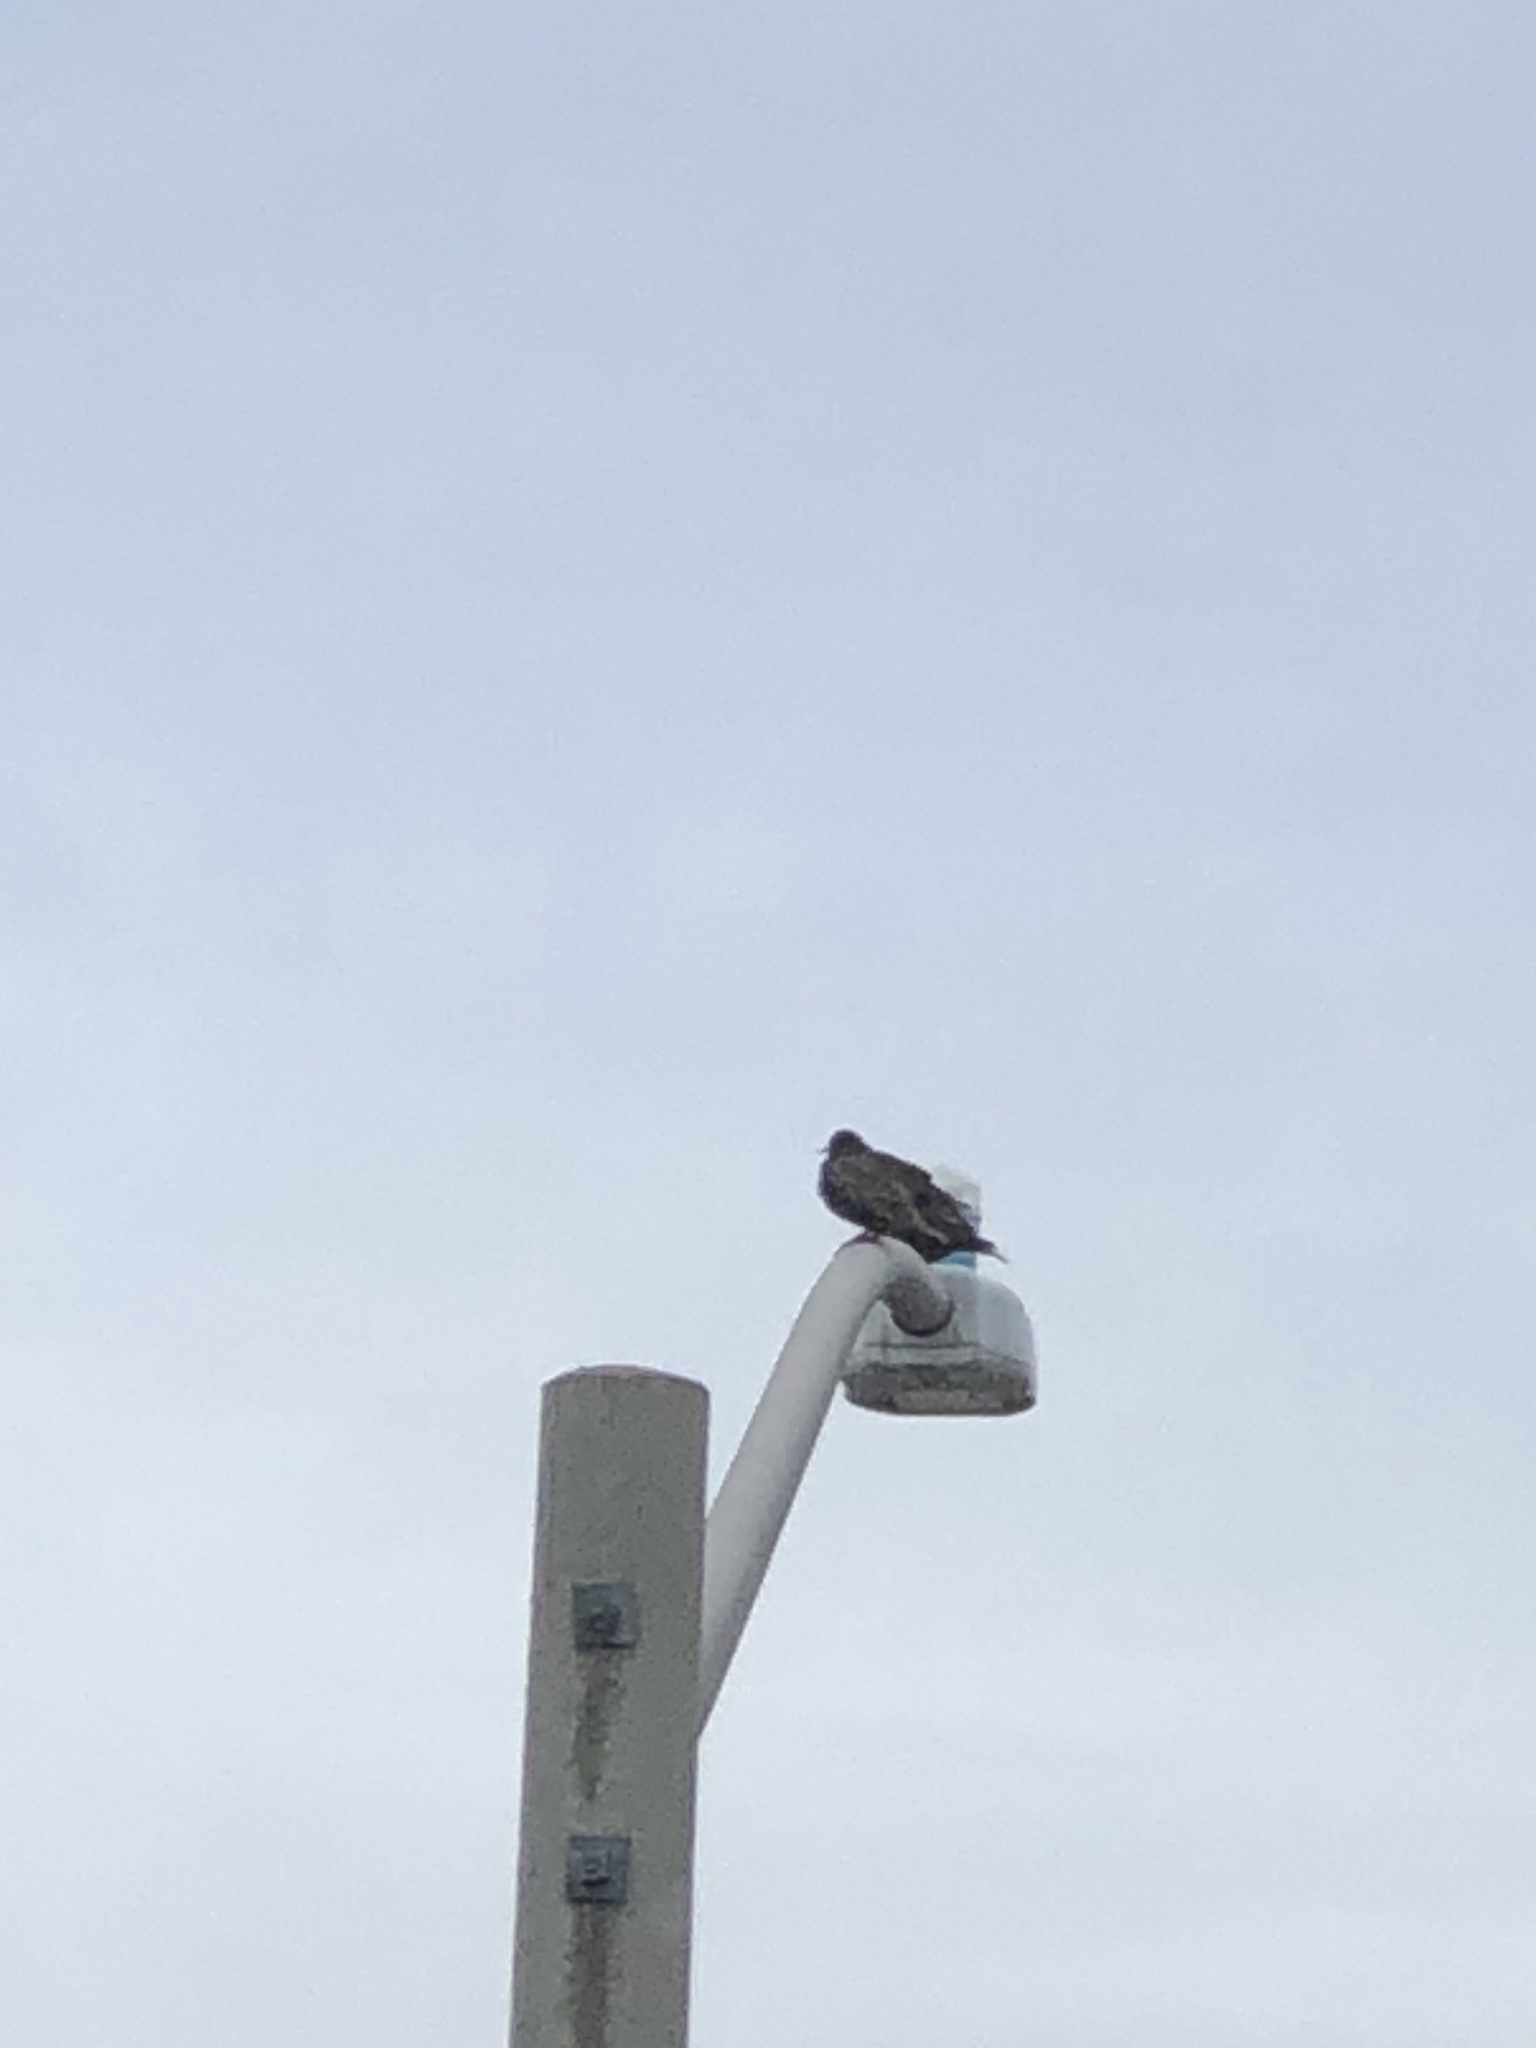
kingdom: Animalia
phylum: Chordata
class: Aves
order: Passeriformes
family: Sturnidae
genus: Sturnus
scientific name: Sturnus vulgaris
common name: Common starling
